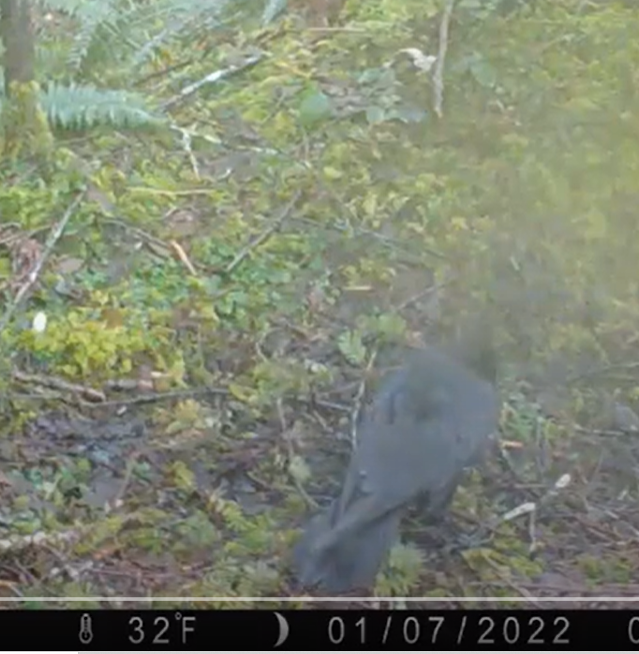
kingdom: Animalia
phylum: Chordata
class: Aves
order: Passeriformes
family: Corvidae
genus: Corvus
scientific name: Corvus corax
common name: Common raven
